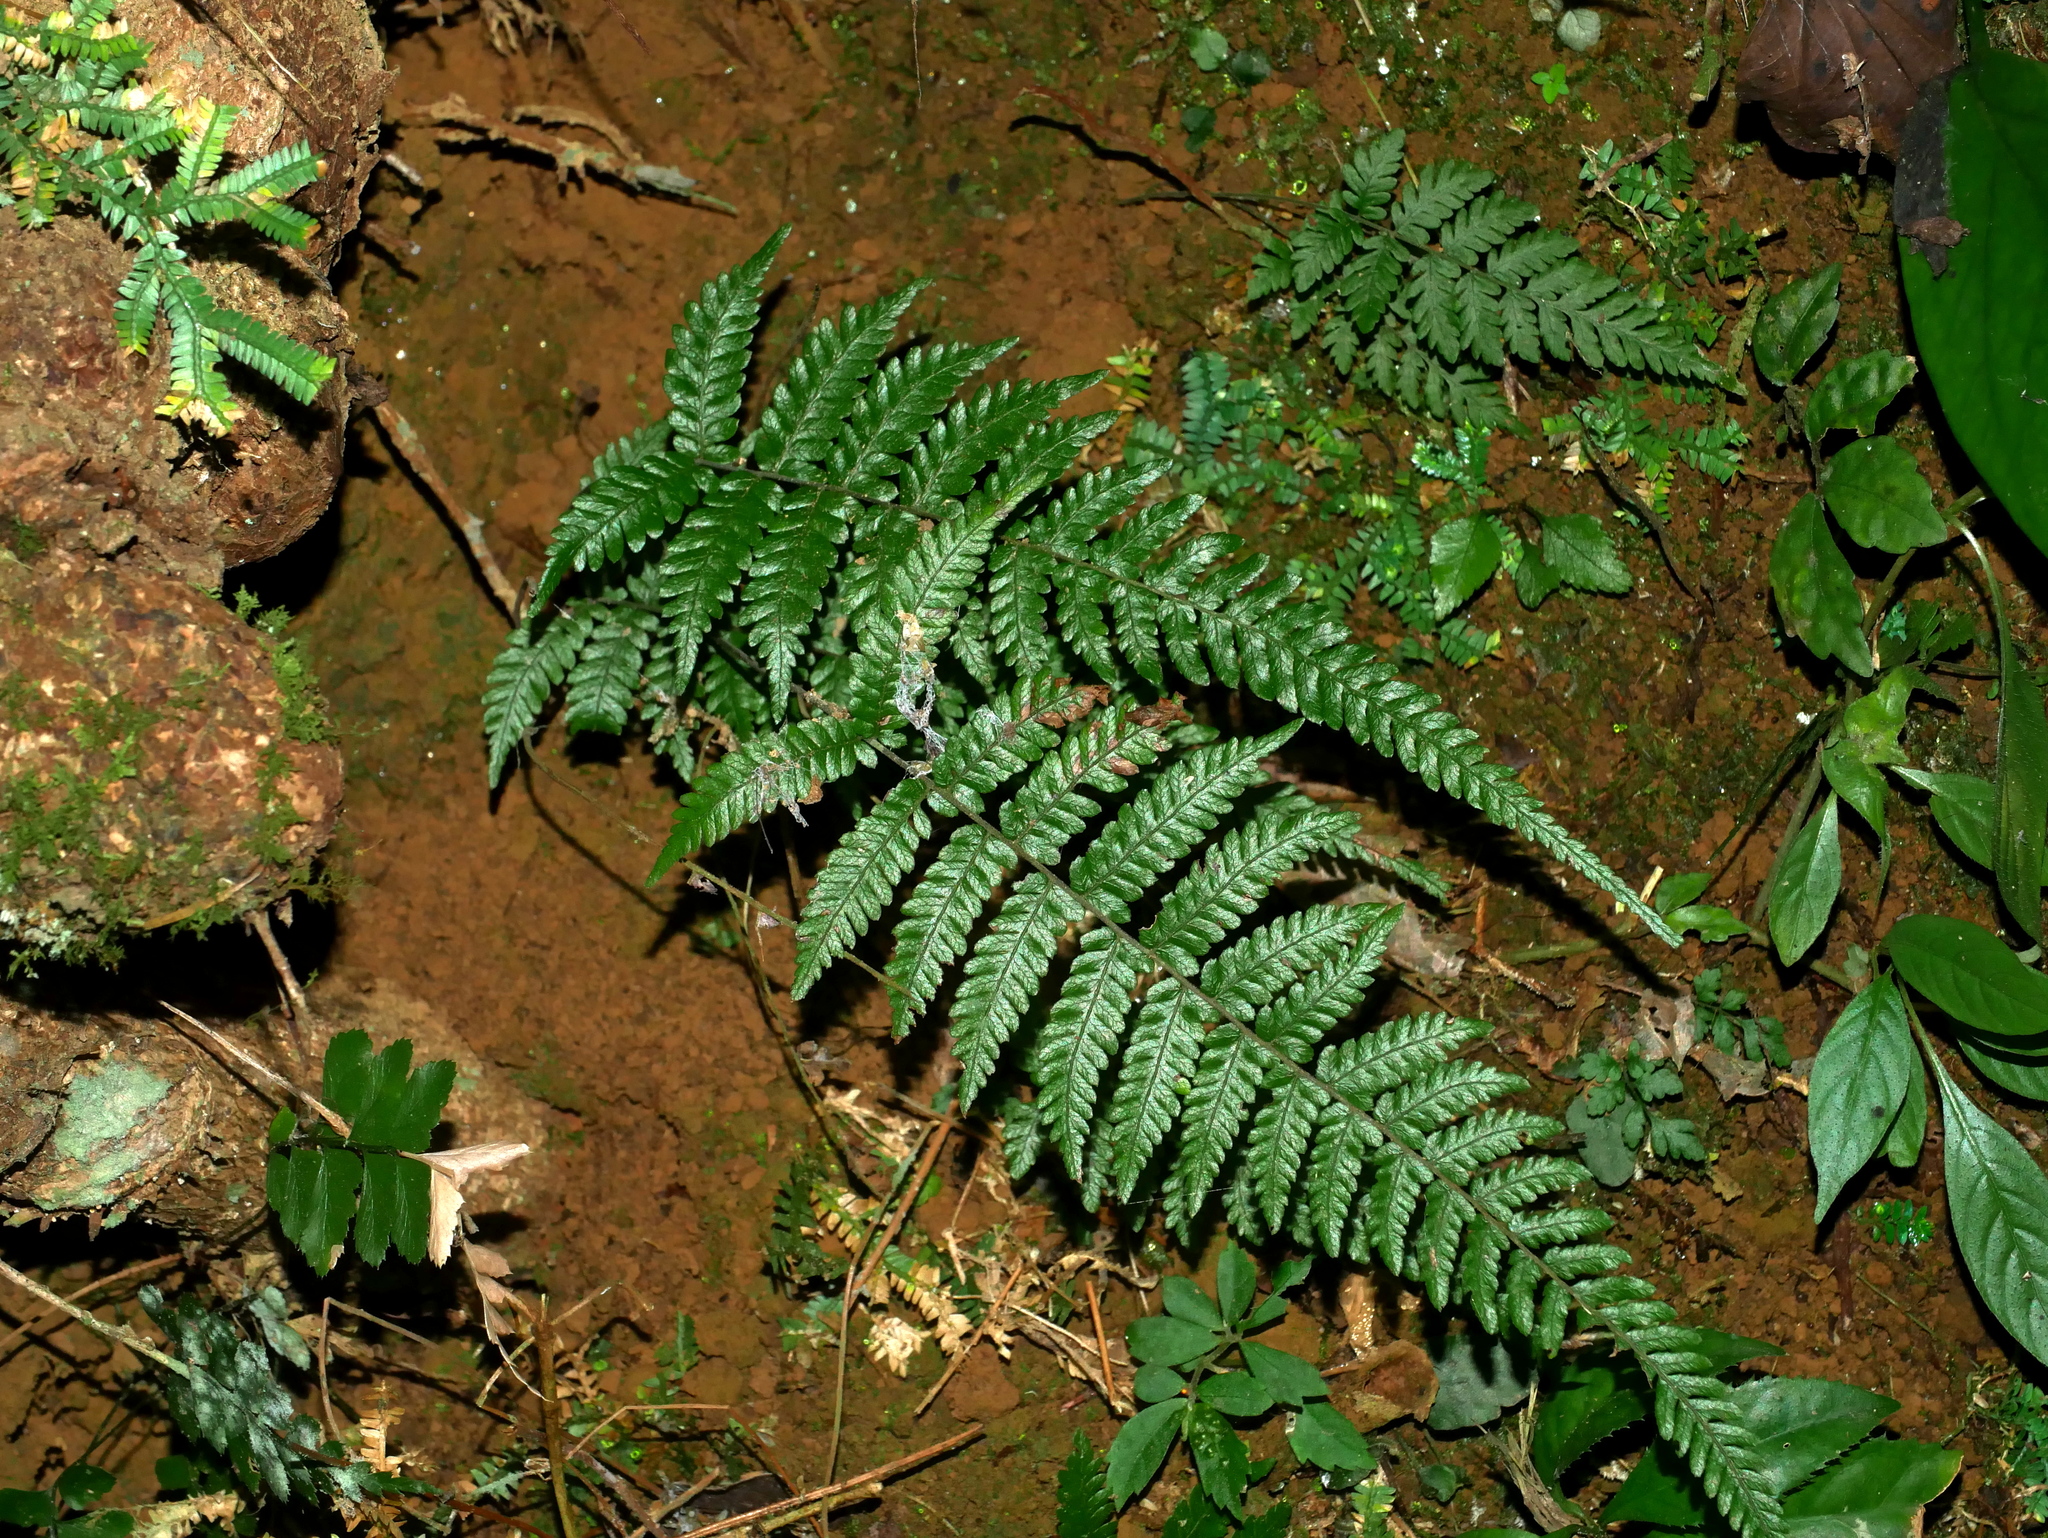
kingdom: Plantae
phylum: Tracheophyta
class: Polypodiopsida
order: Polypodiales
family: Thelypteridaceae
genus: Amauropelta
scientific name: Amauropelta angustifrons
